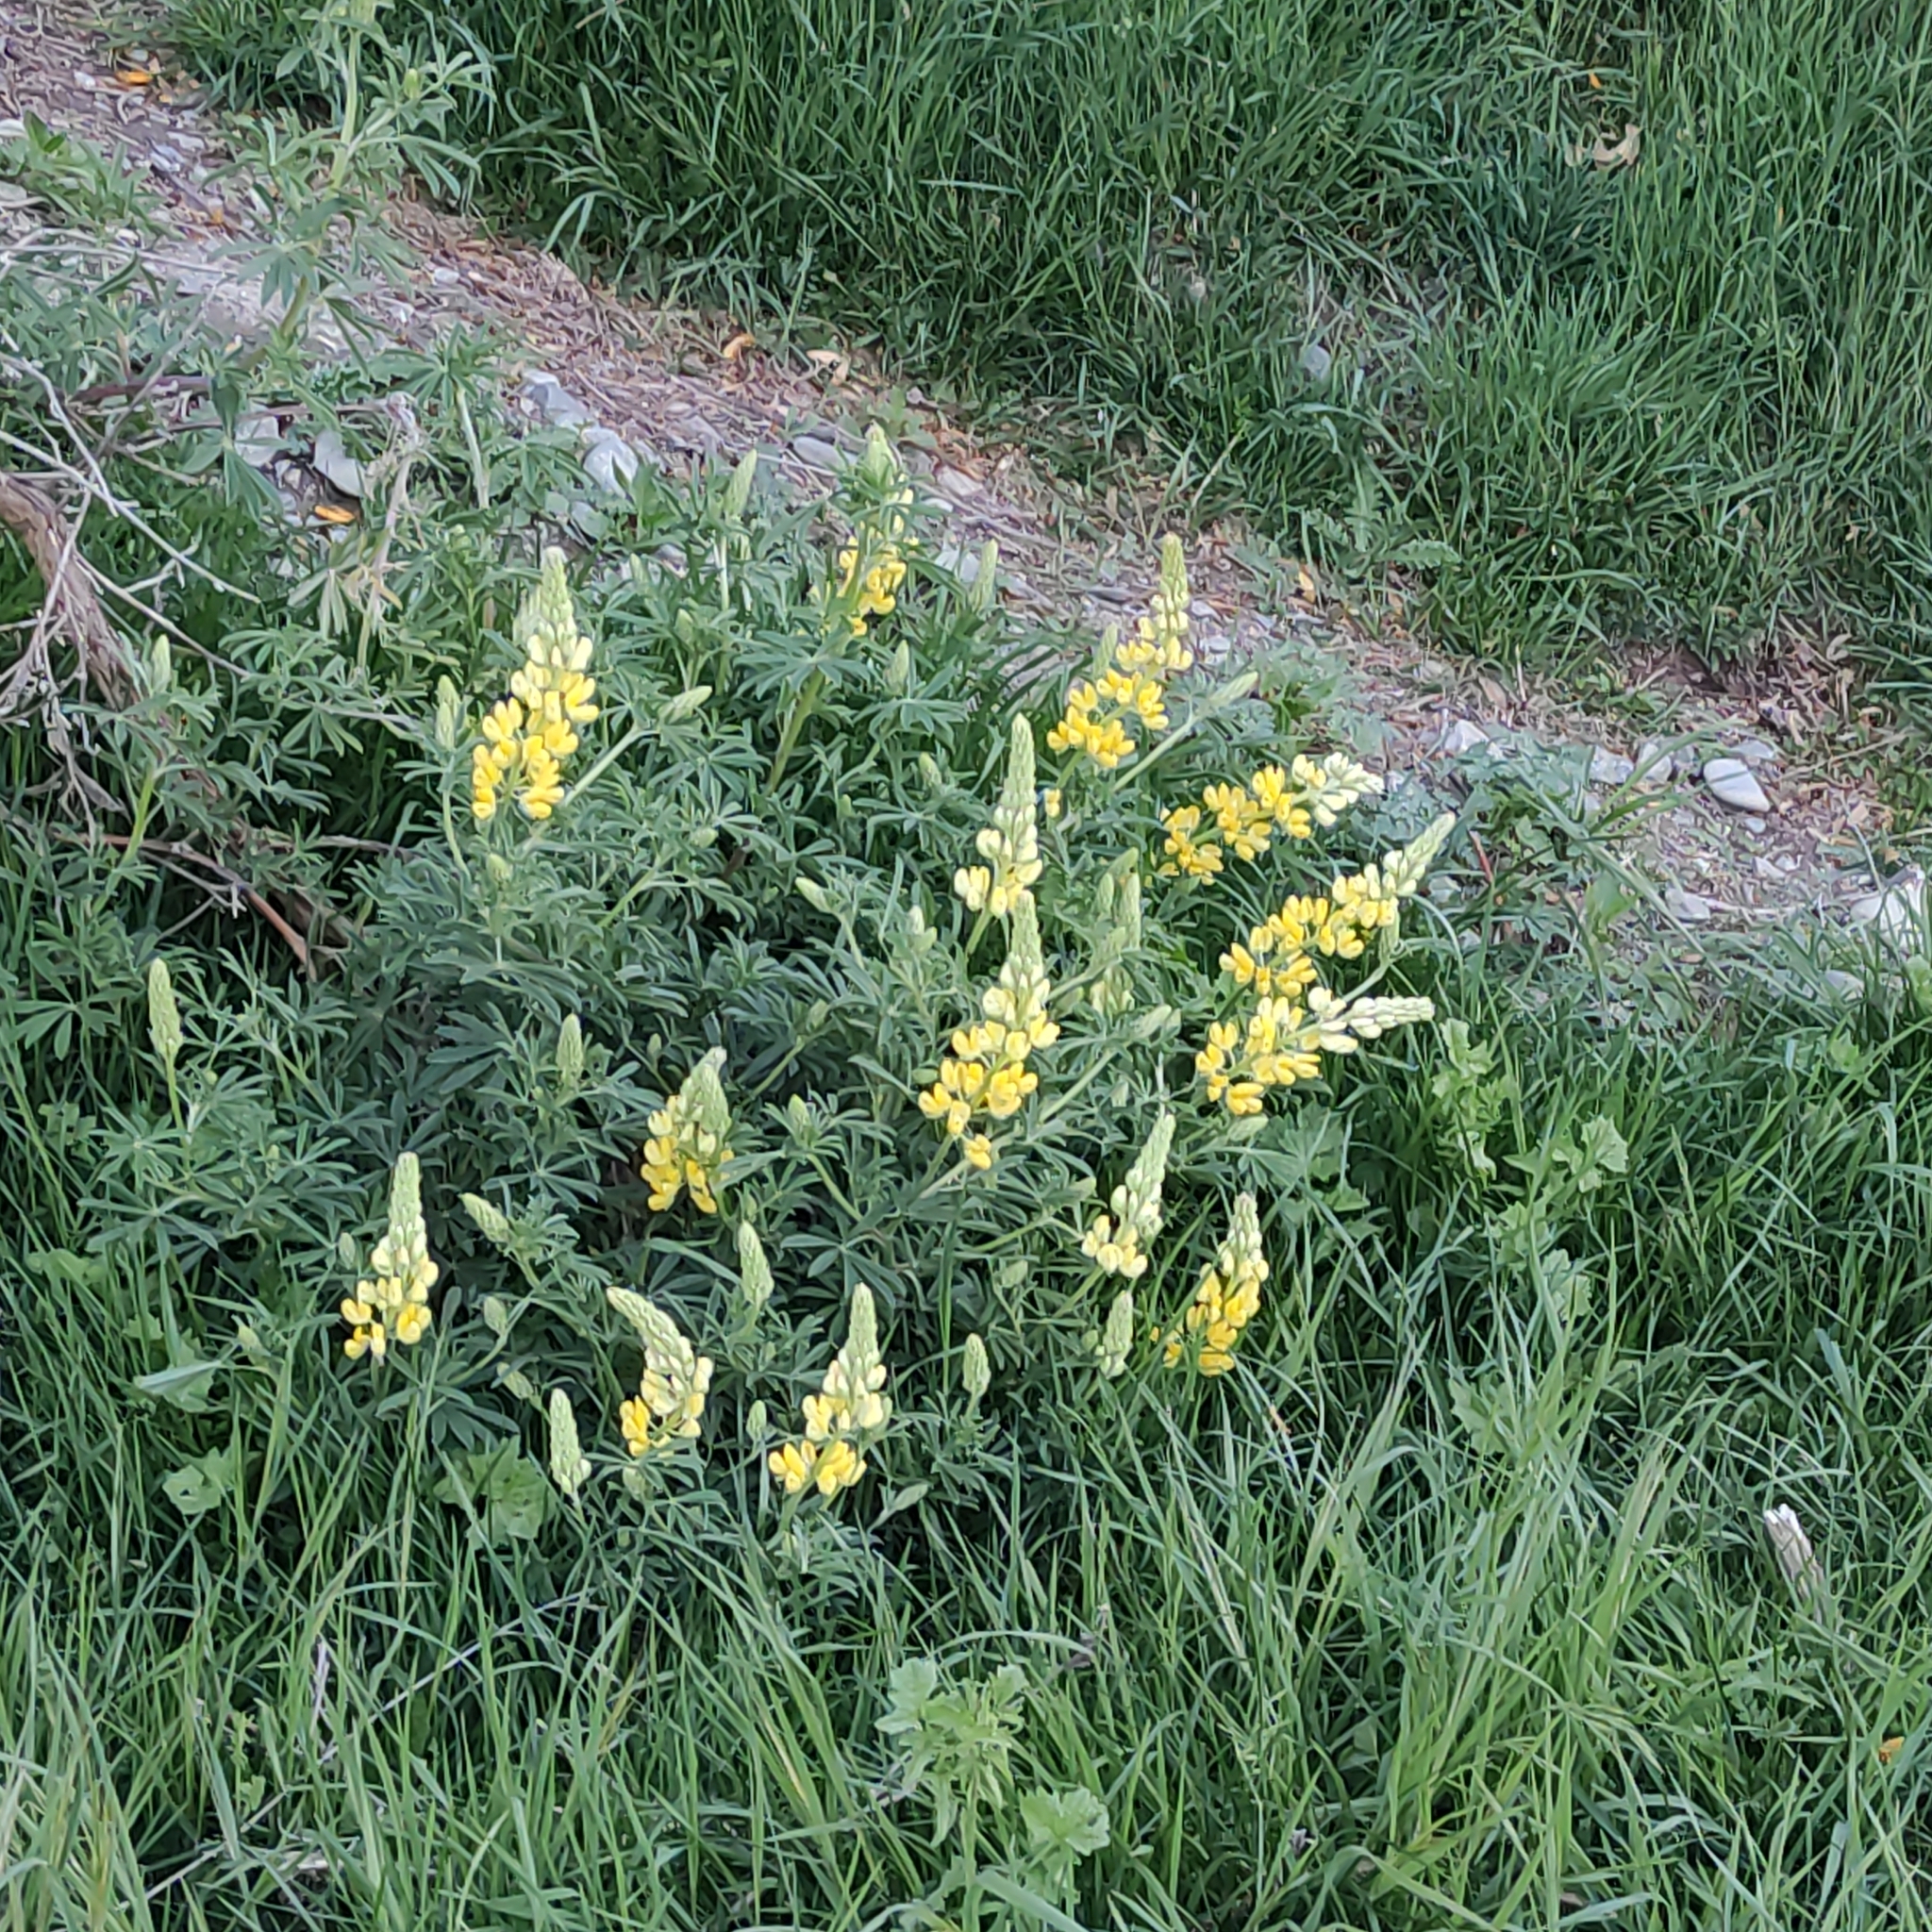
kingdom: Plantae
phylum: Tracheophyta
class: Magnoliopsida
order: Fabales
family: Fabaceae
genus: Lupinus
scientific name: Lupinus arboreus
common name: Yellow bush lupine
